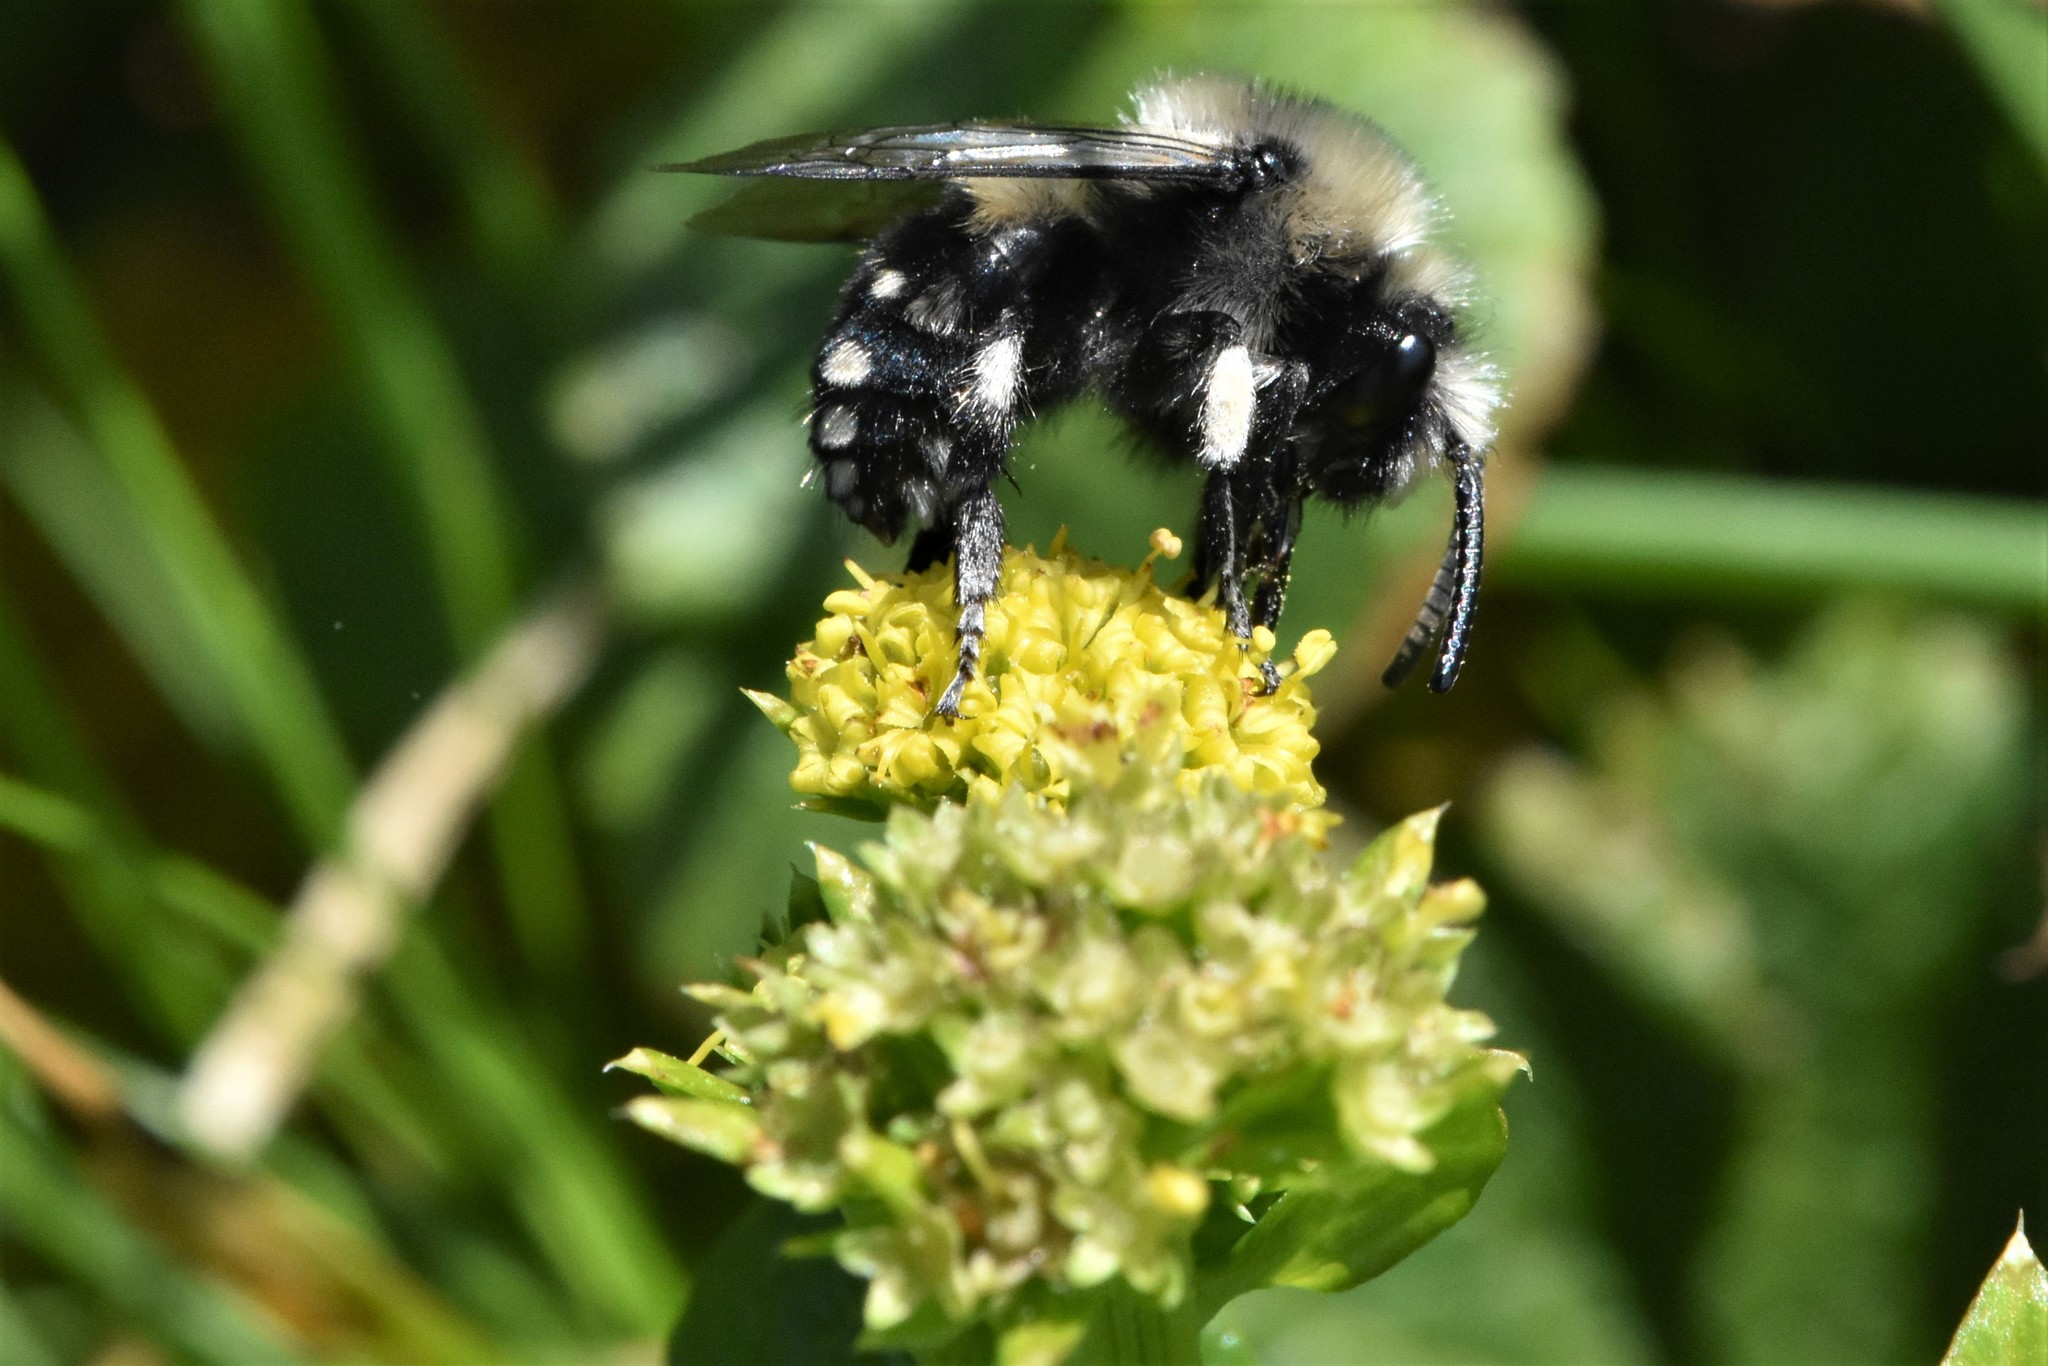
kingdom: Animalia
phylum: Arthropoda
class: Insecta
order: Hymenoptera
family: Apidae
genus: Melecta
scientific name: Melecta separata
